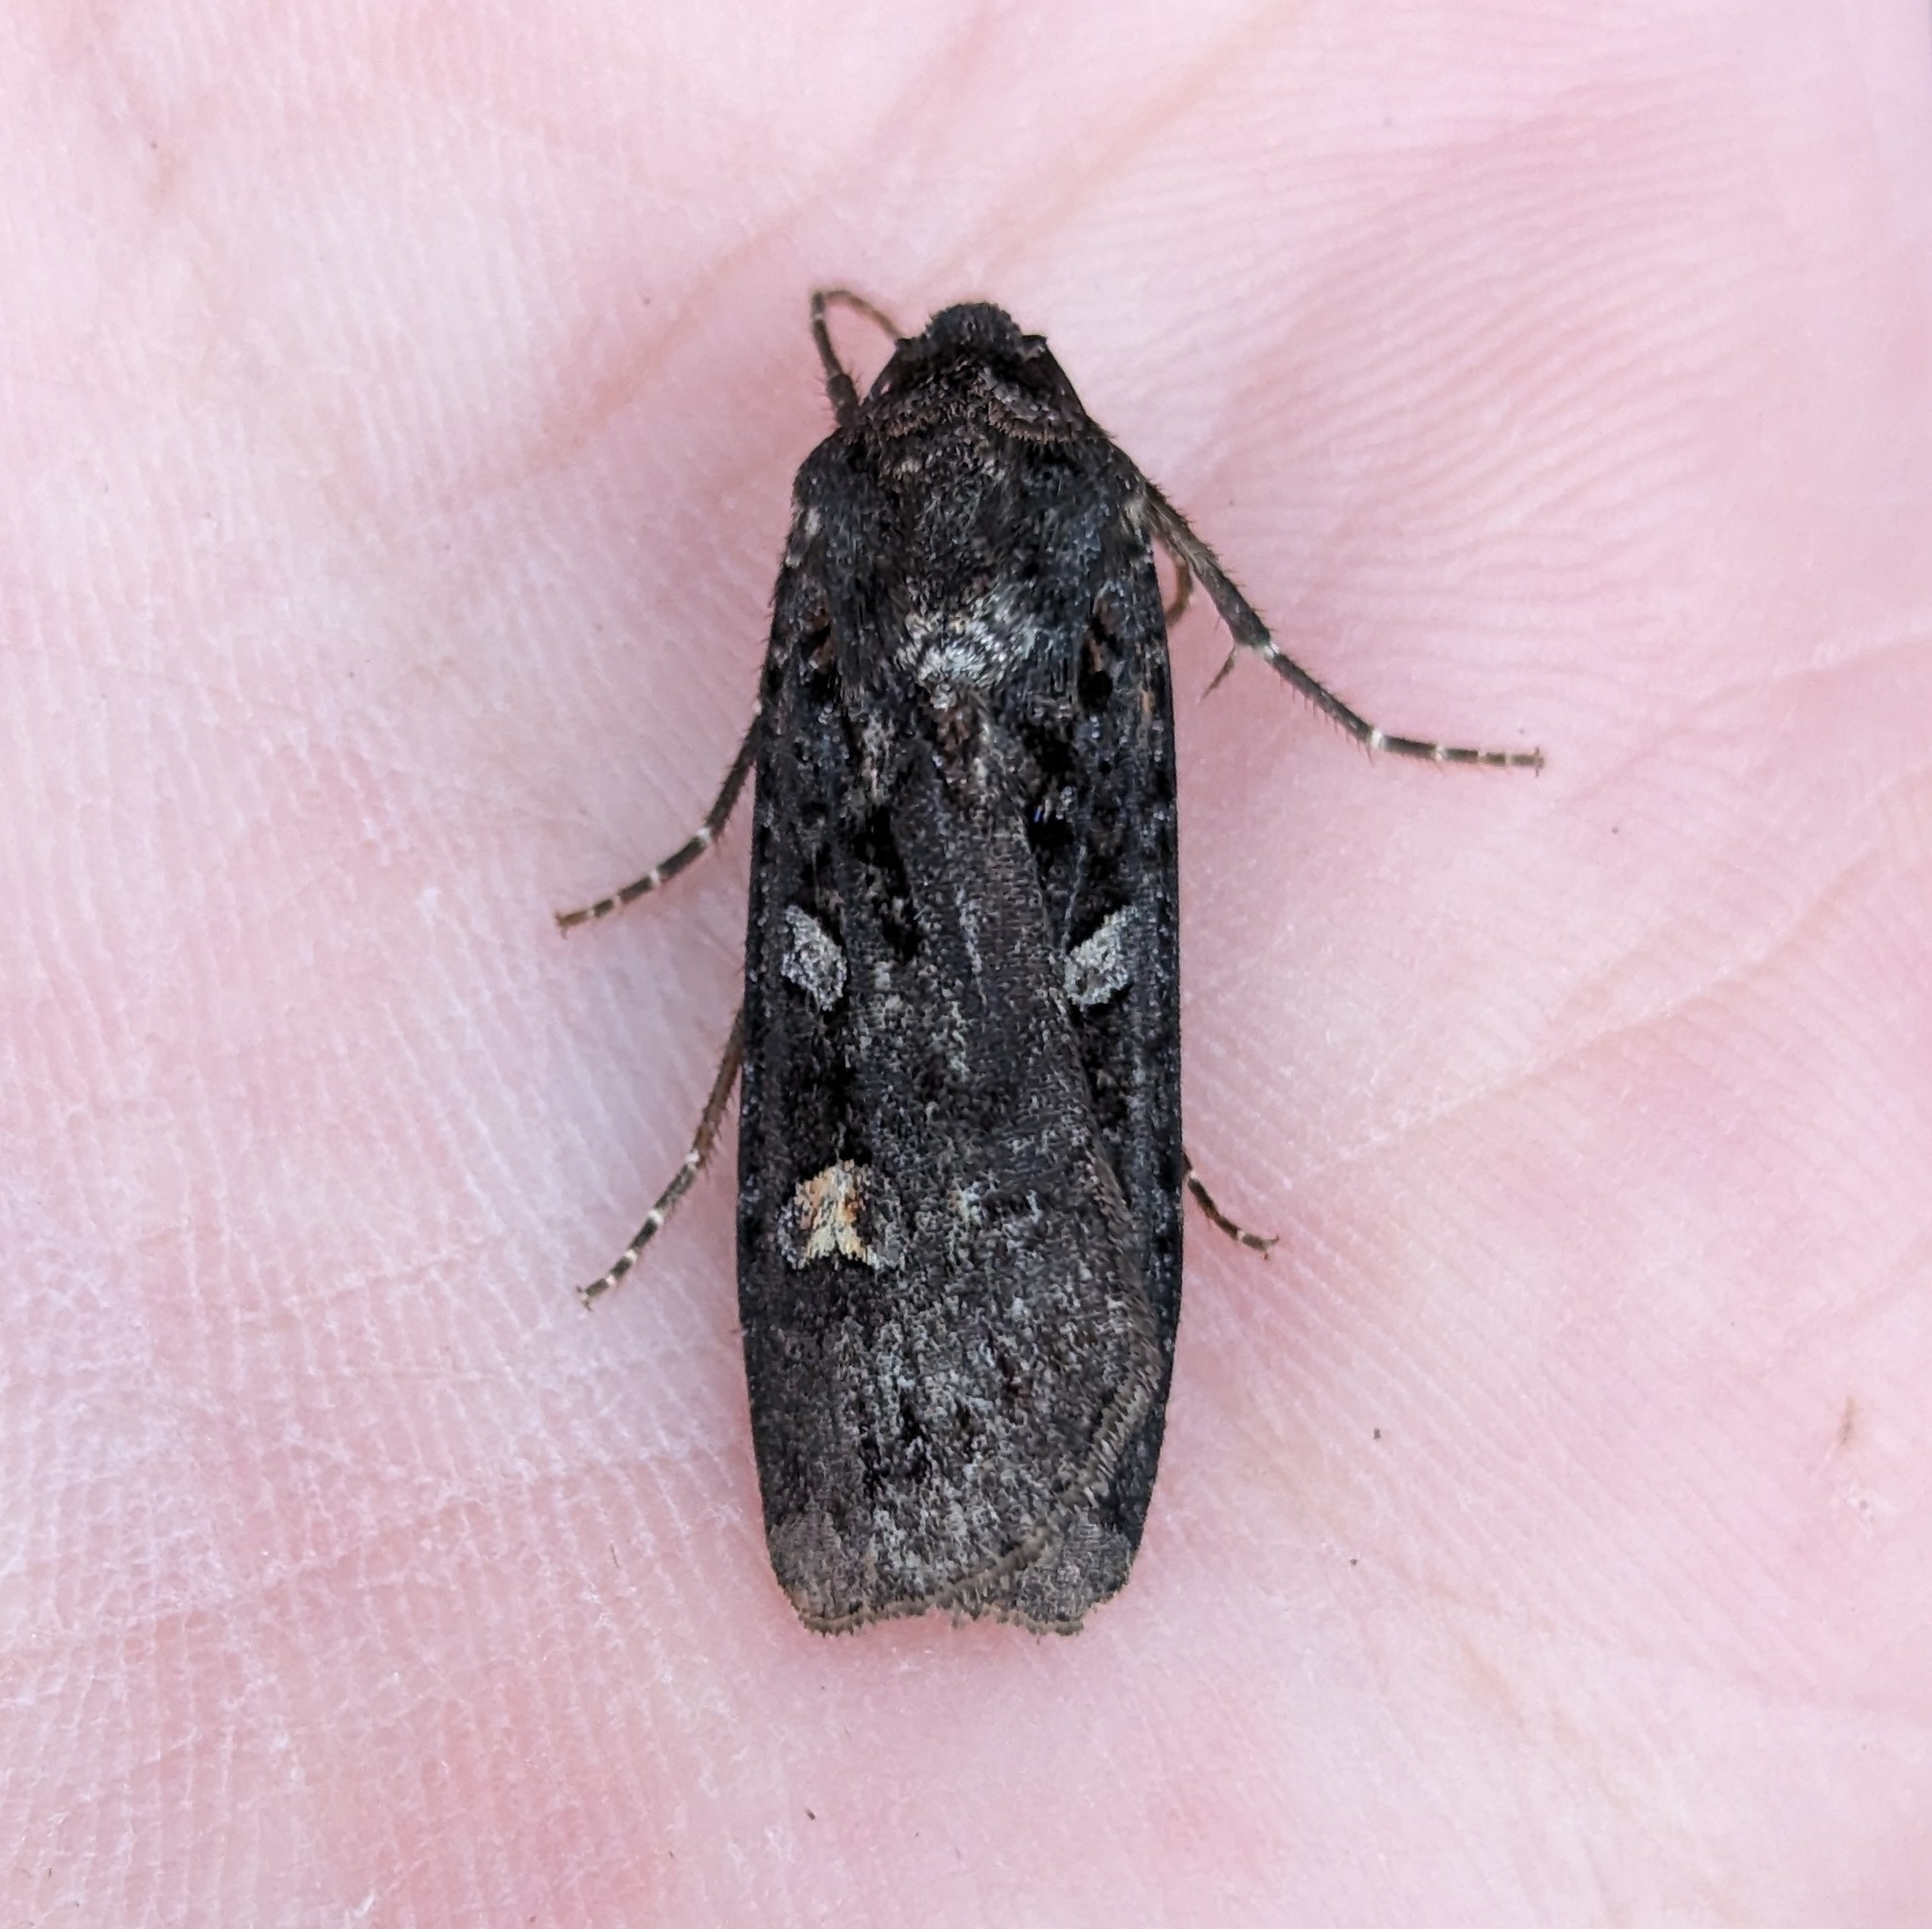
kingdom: Animalia
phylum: Arthropoda
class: Insecta
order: Lepidoptera
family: Noctuidae
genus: Actebia
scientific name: Actebia fennica
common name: Eversmann's rustic
